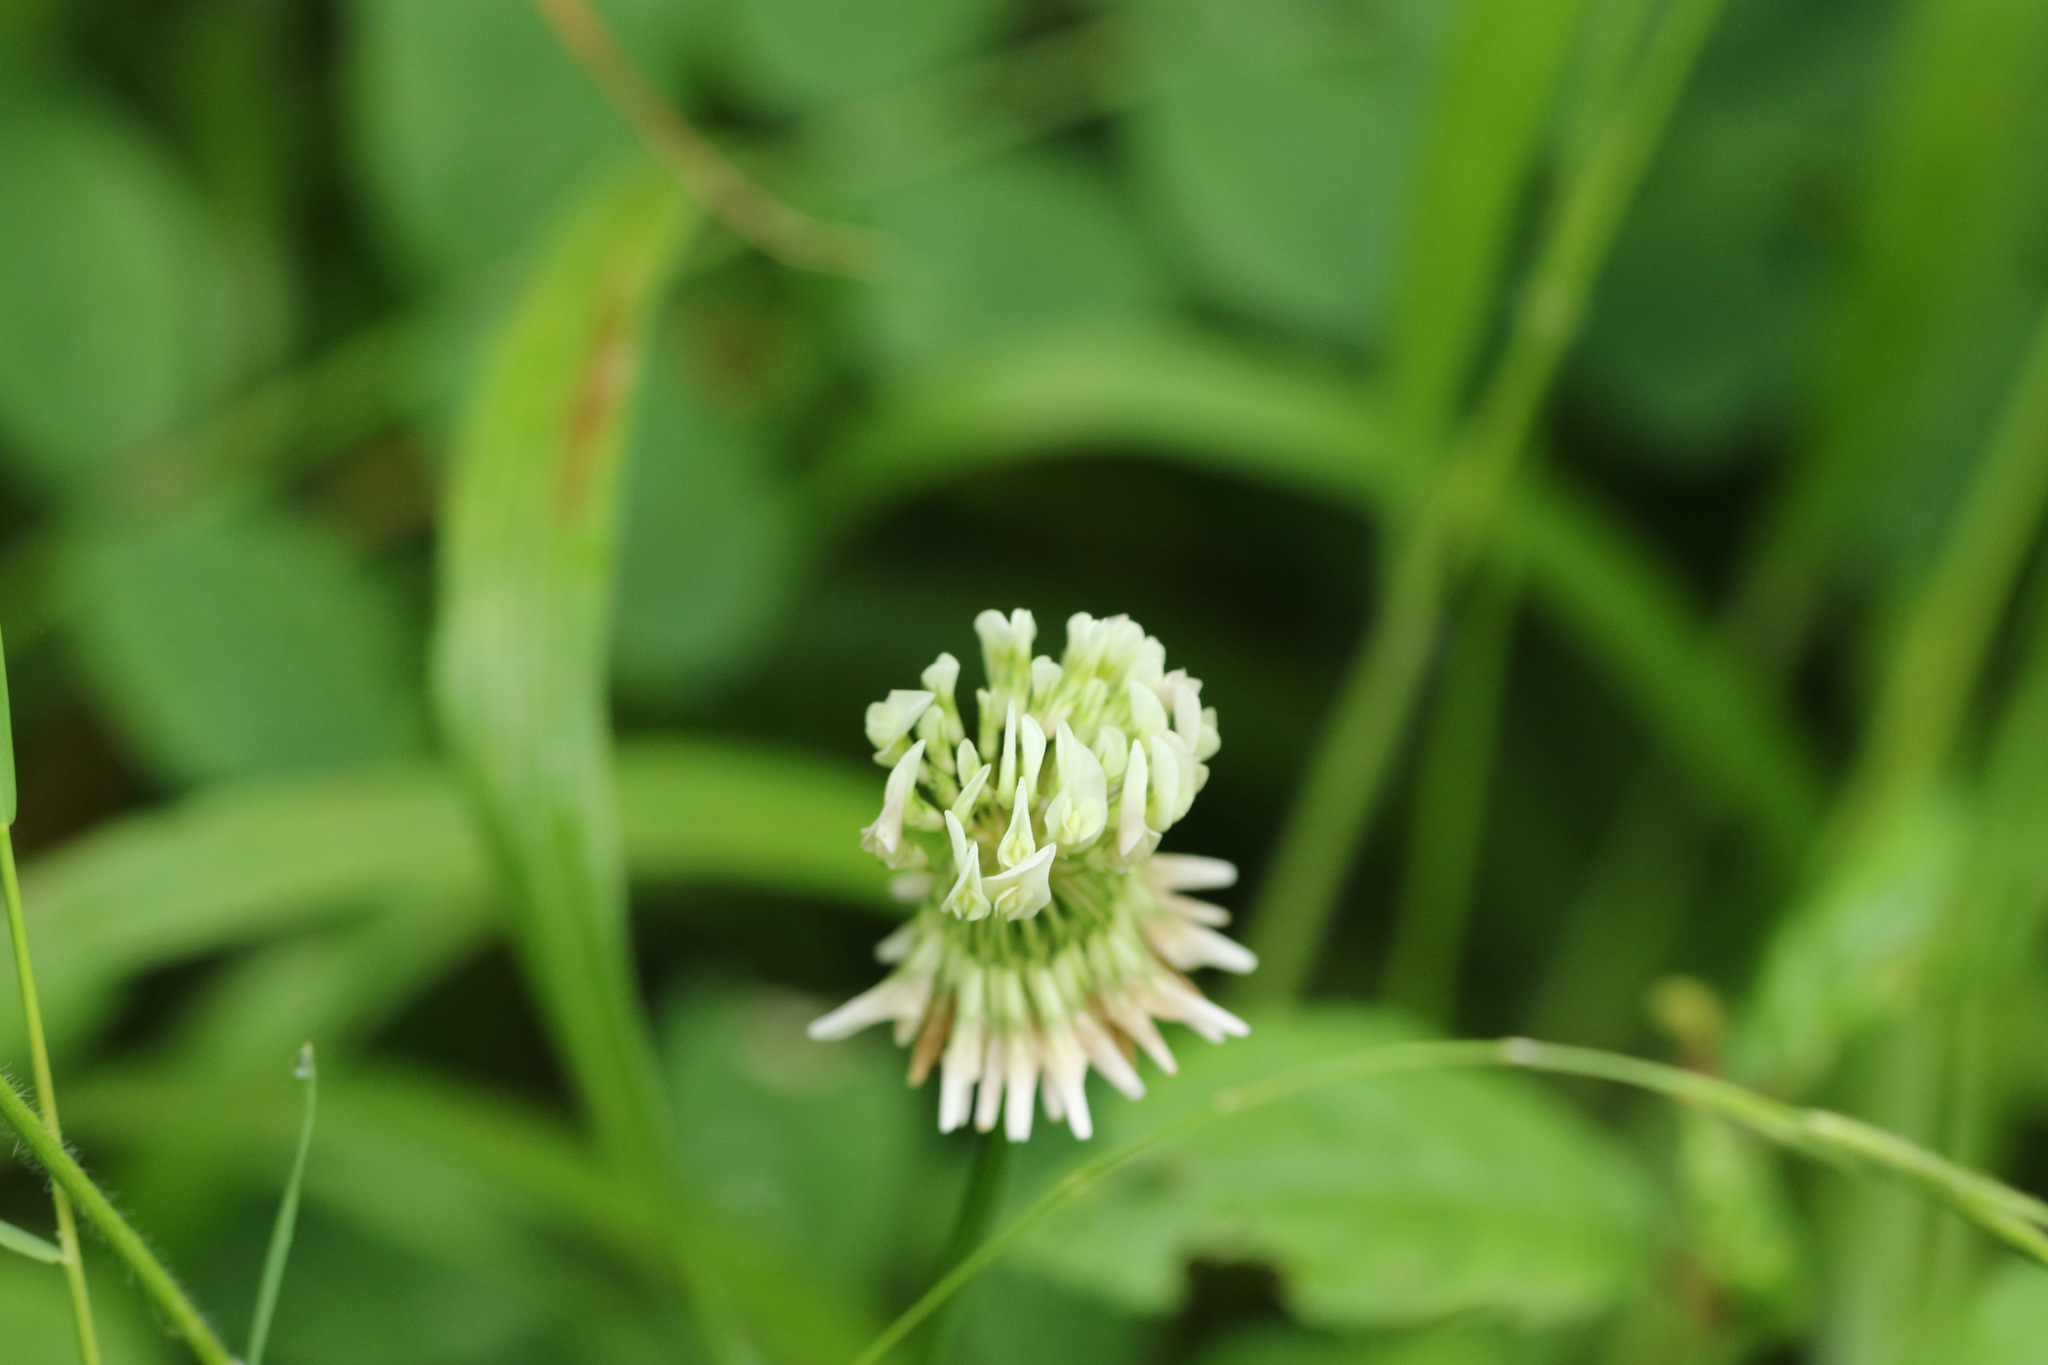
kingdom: Plantae
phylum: Tracheophyta
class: Magnoliopsida
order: Fabales
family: Fabaceae
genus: Trifolium
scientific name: Trifolium repens
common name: White clover
